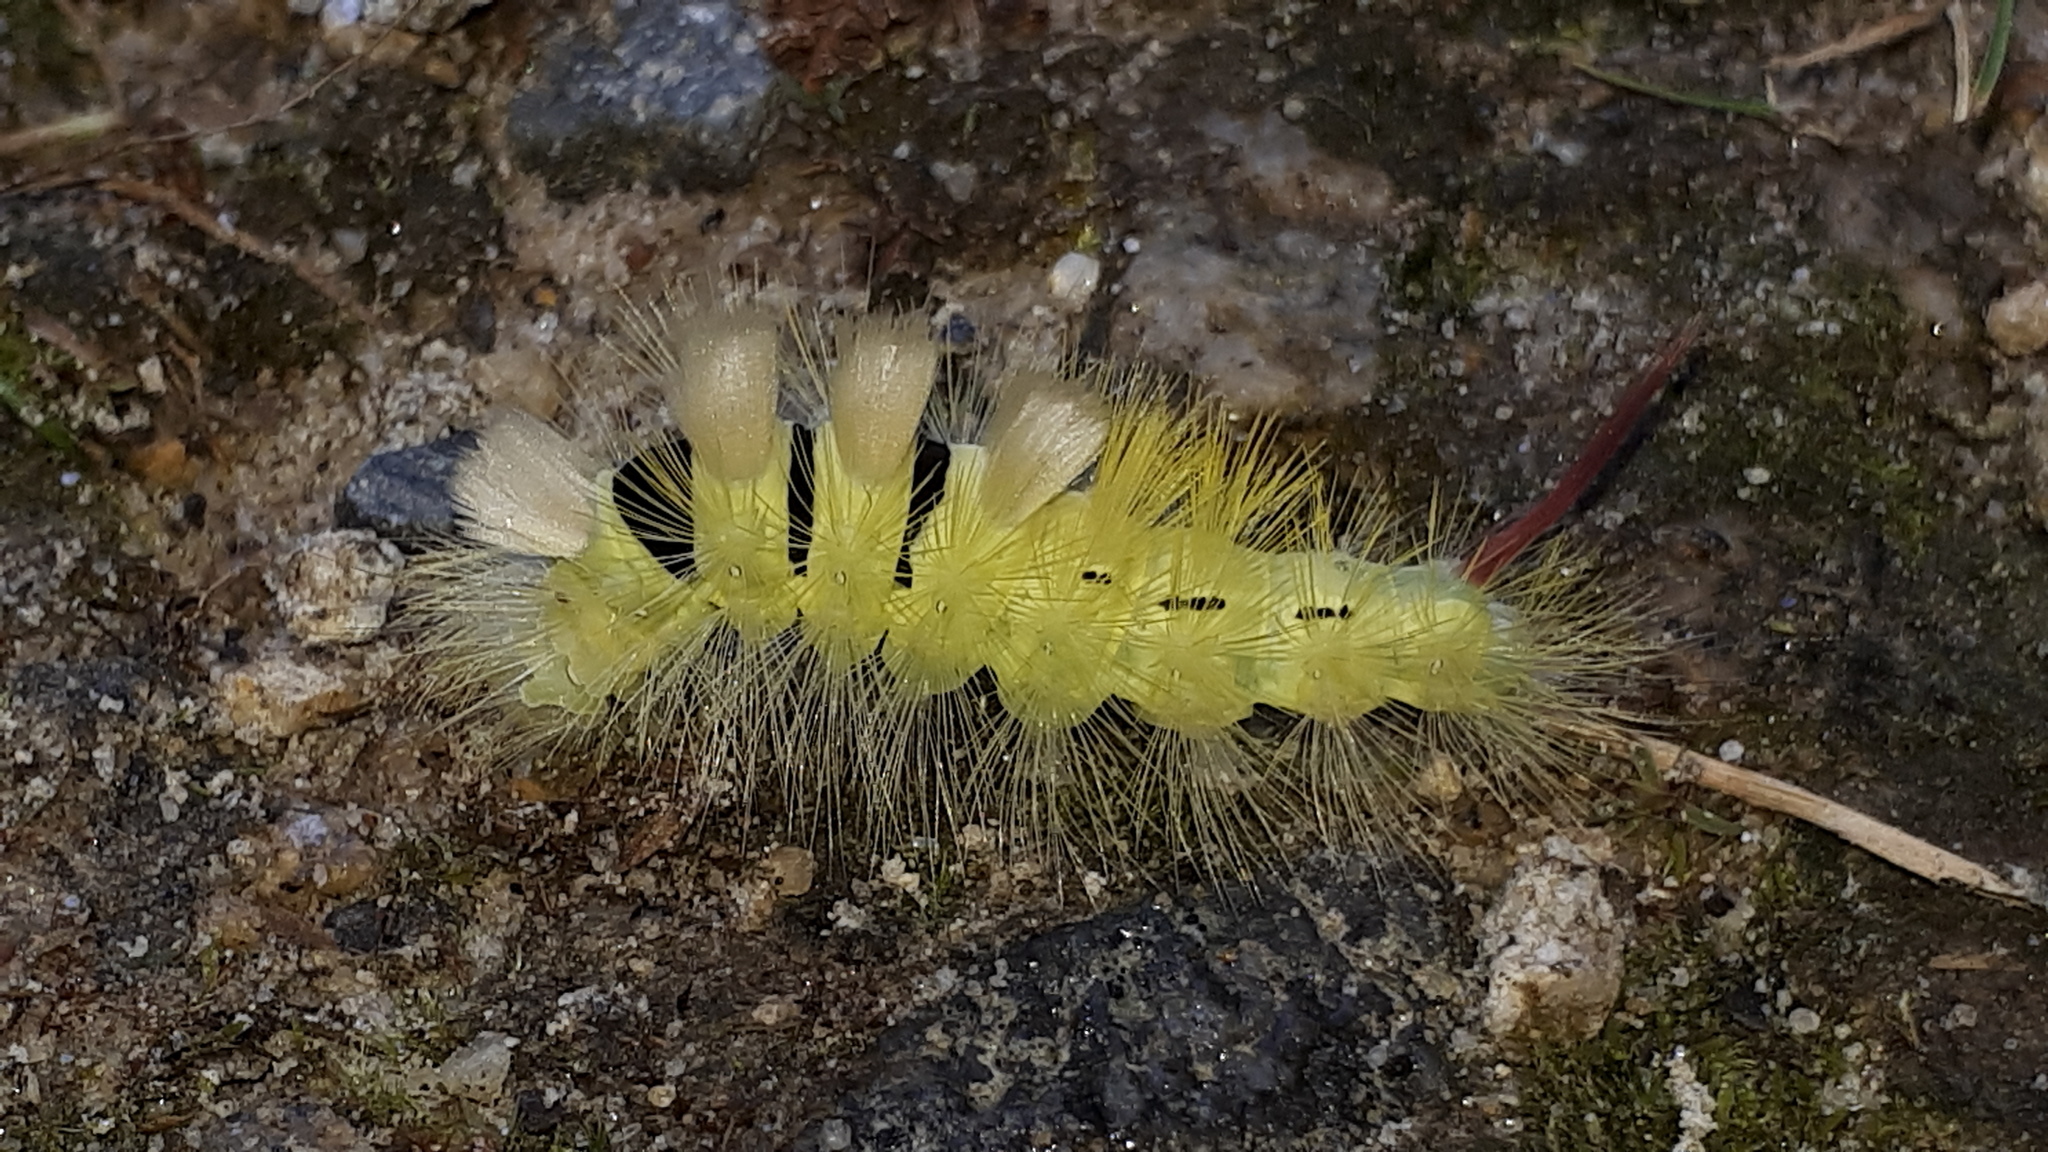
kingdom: Animalia
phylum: Arthropoda
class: Insecta
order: Lepidoptera
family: Erebidae
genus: Calliteara
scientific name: Calliteara pudibunda
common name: Pale tussock
